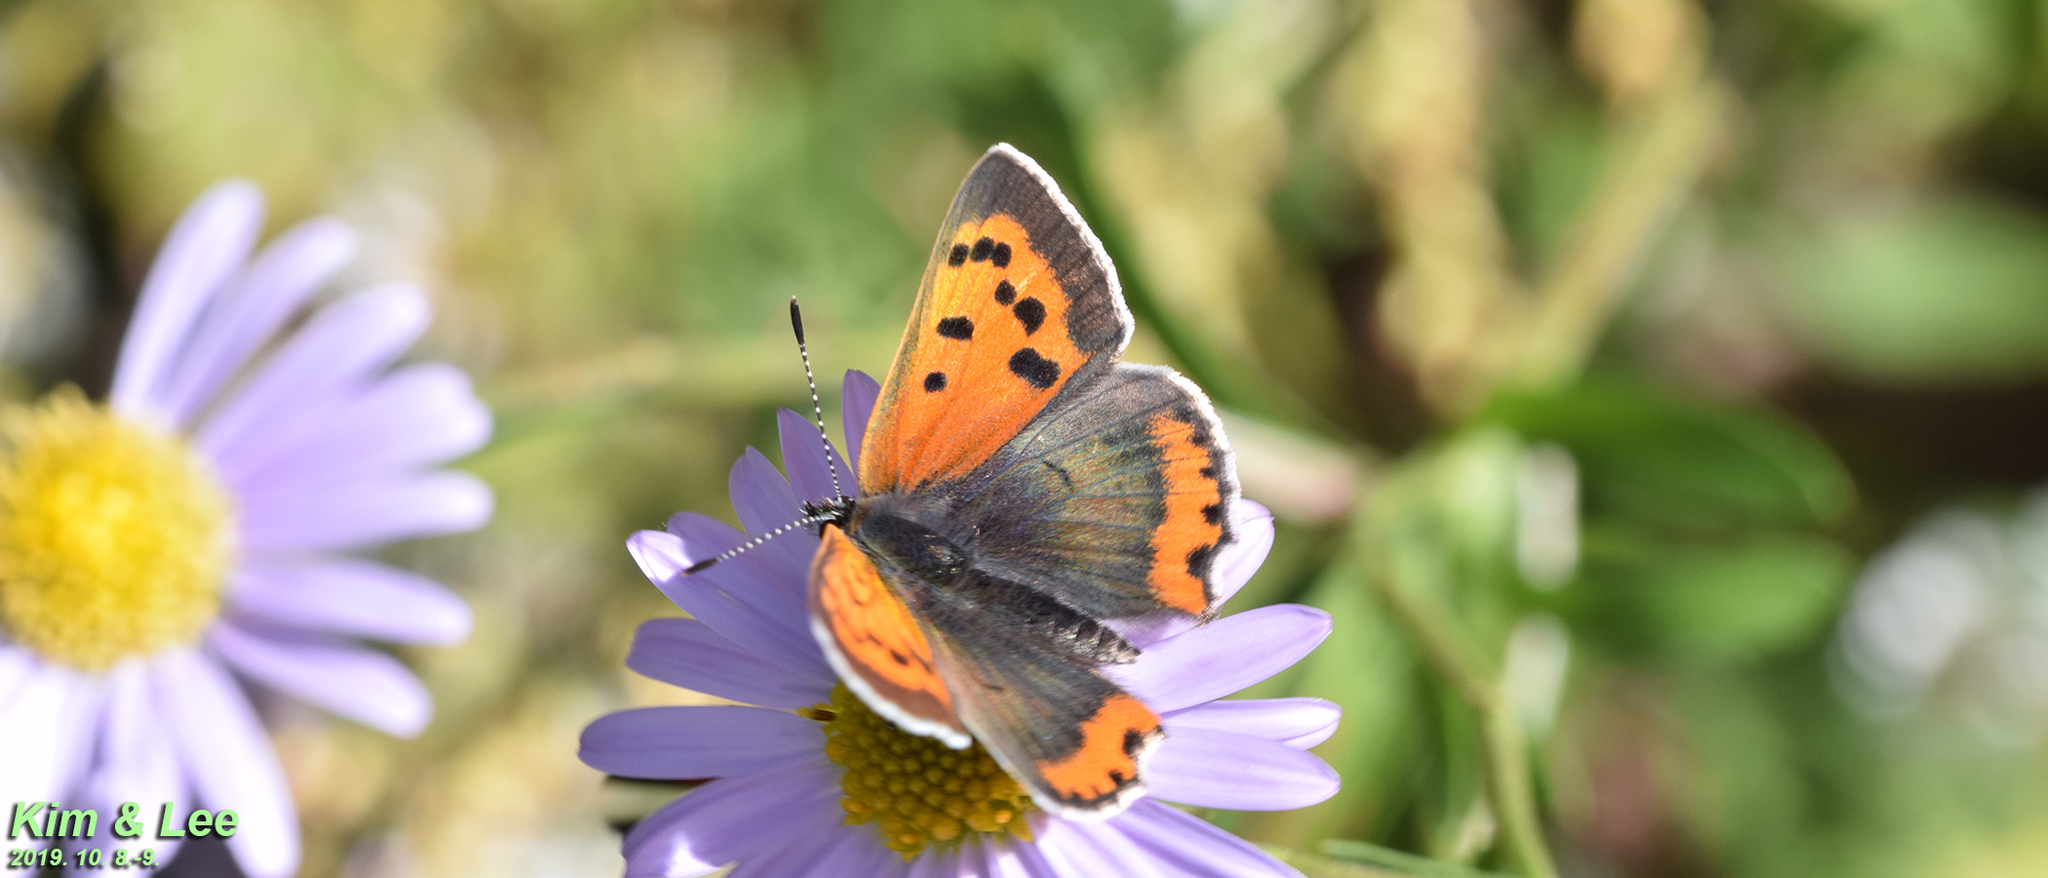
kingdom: Animalia
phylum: Arthropoda
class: Insecta
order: Lepidoptera
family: Lycaenidae
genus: Lycaena
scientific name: Lycaena phlaeas
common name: Small copper
